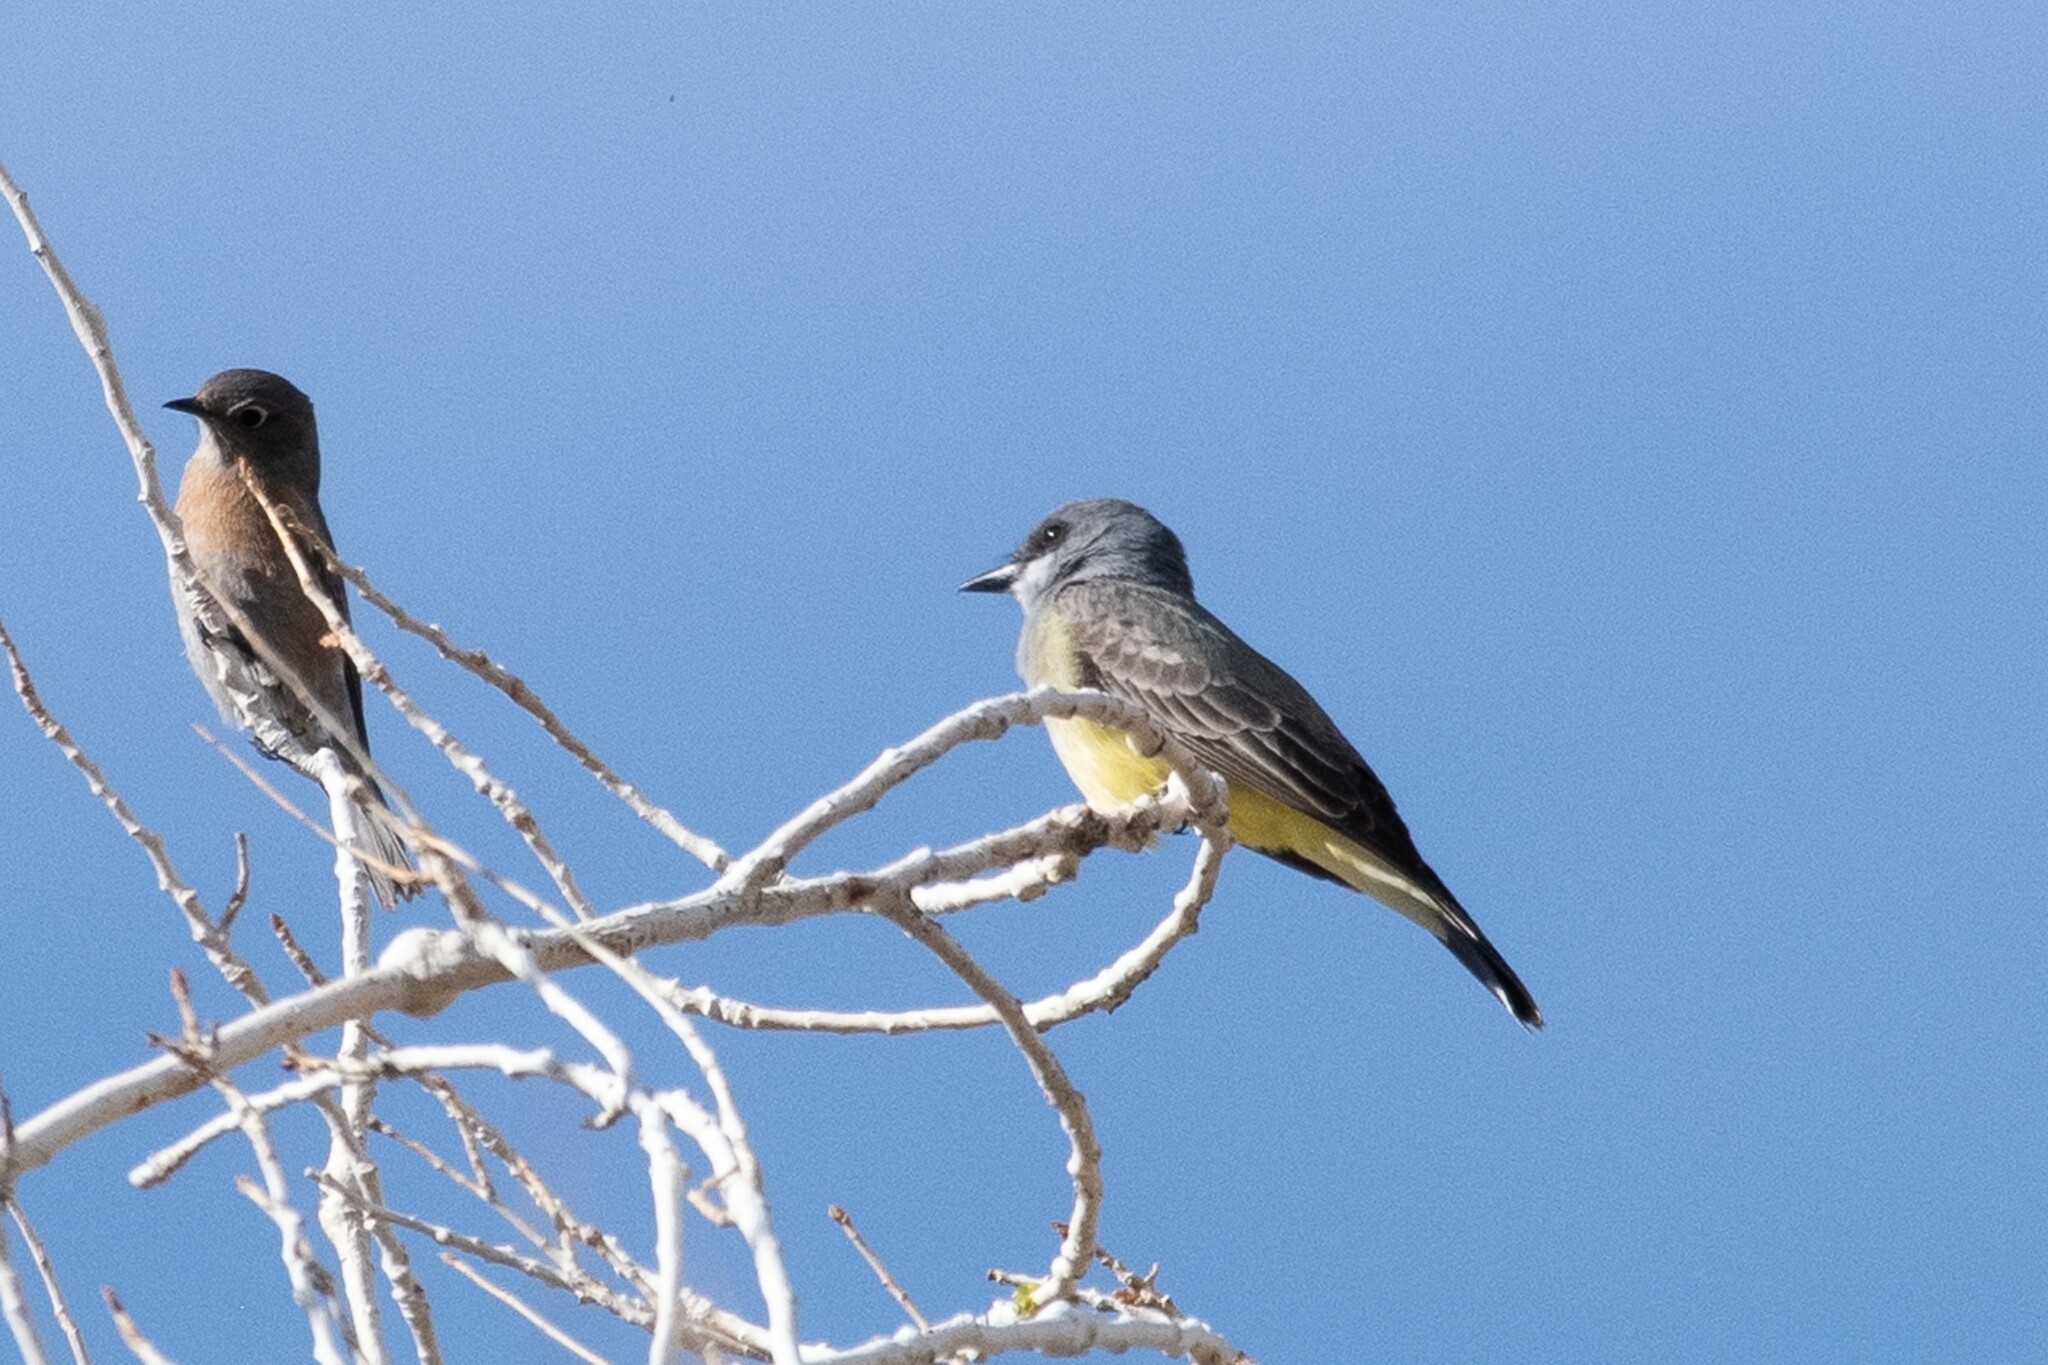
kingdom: Animalia
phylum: Chordata
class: Aves
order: Passeriformes
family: Tyrannidae
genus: Tyrannus
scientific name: Tyrannus vociferans
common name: Cassin's kingbird
